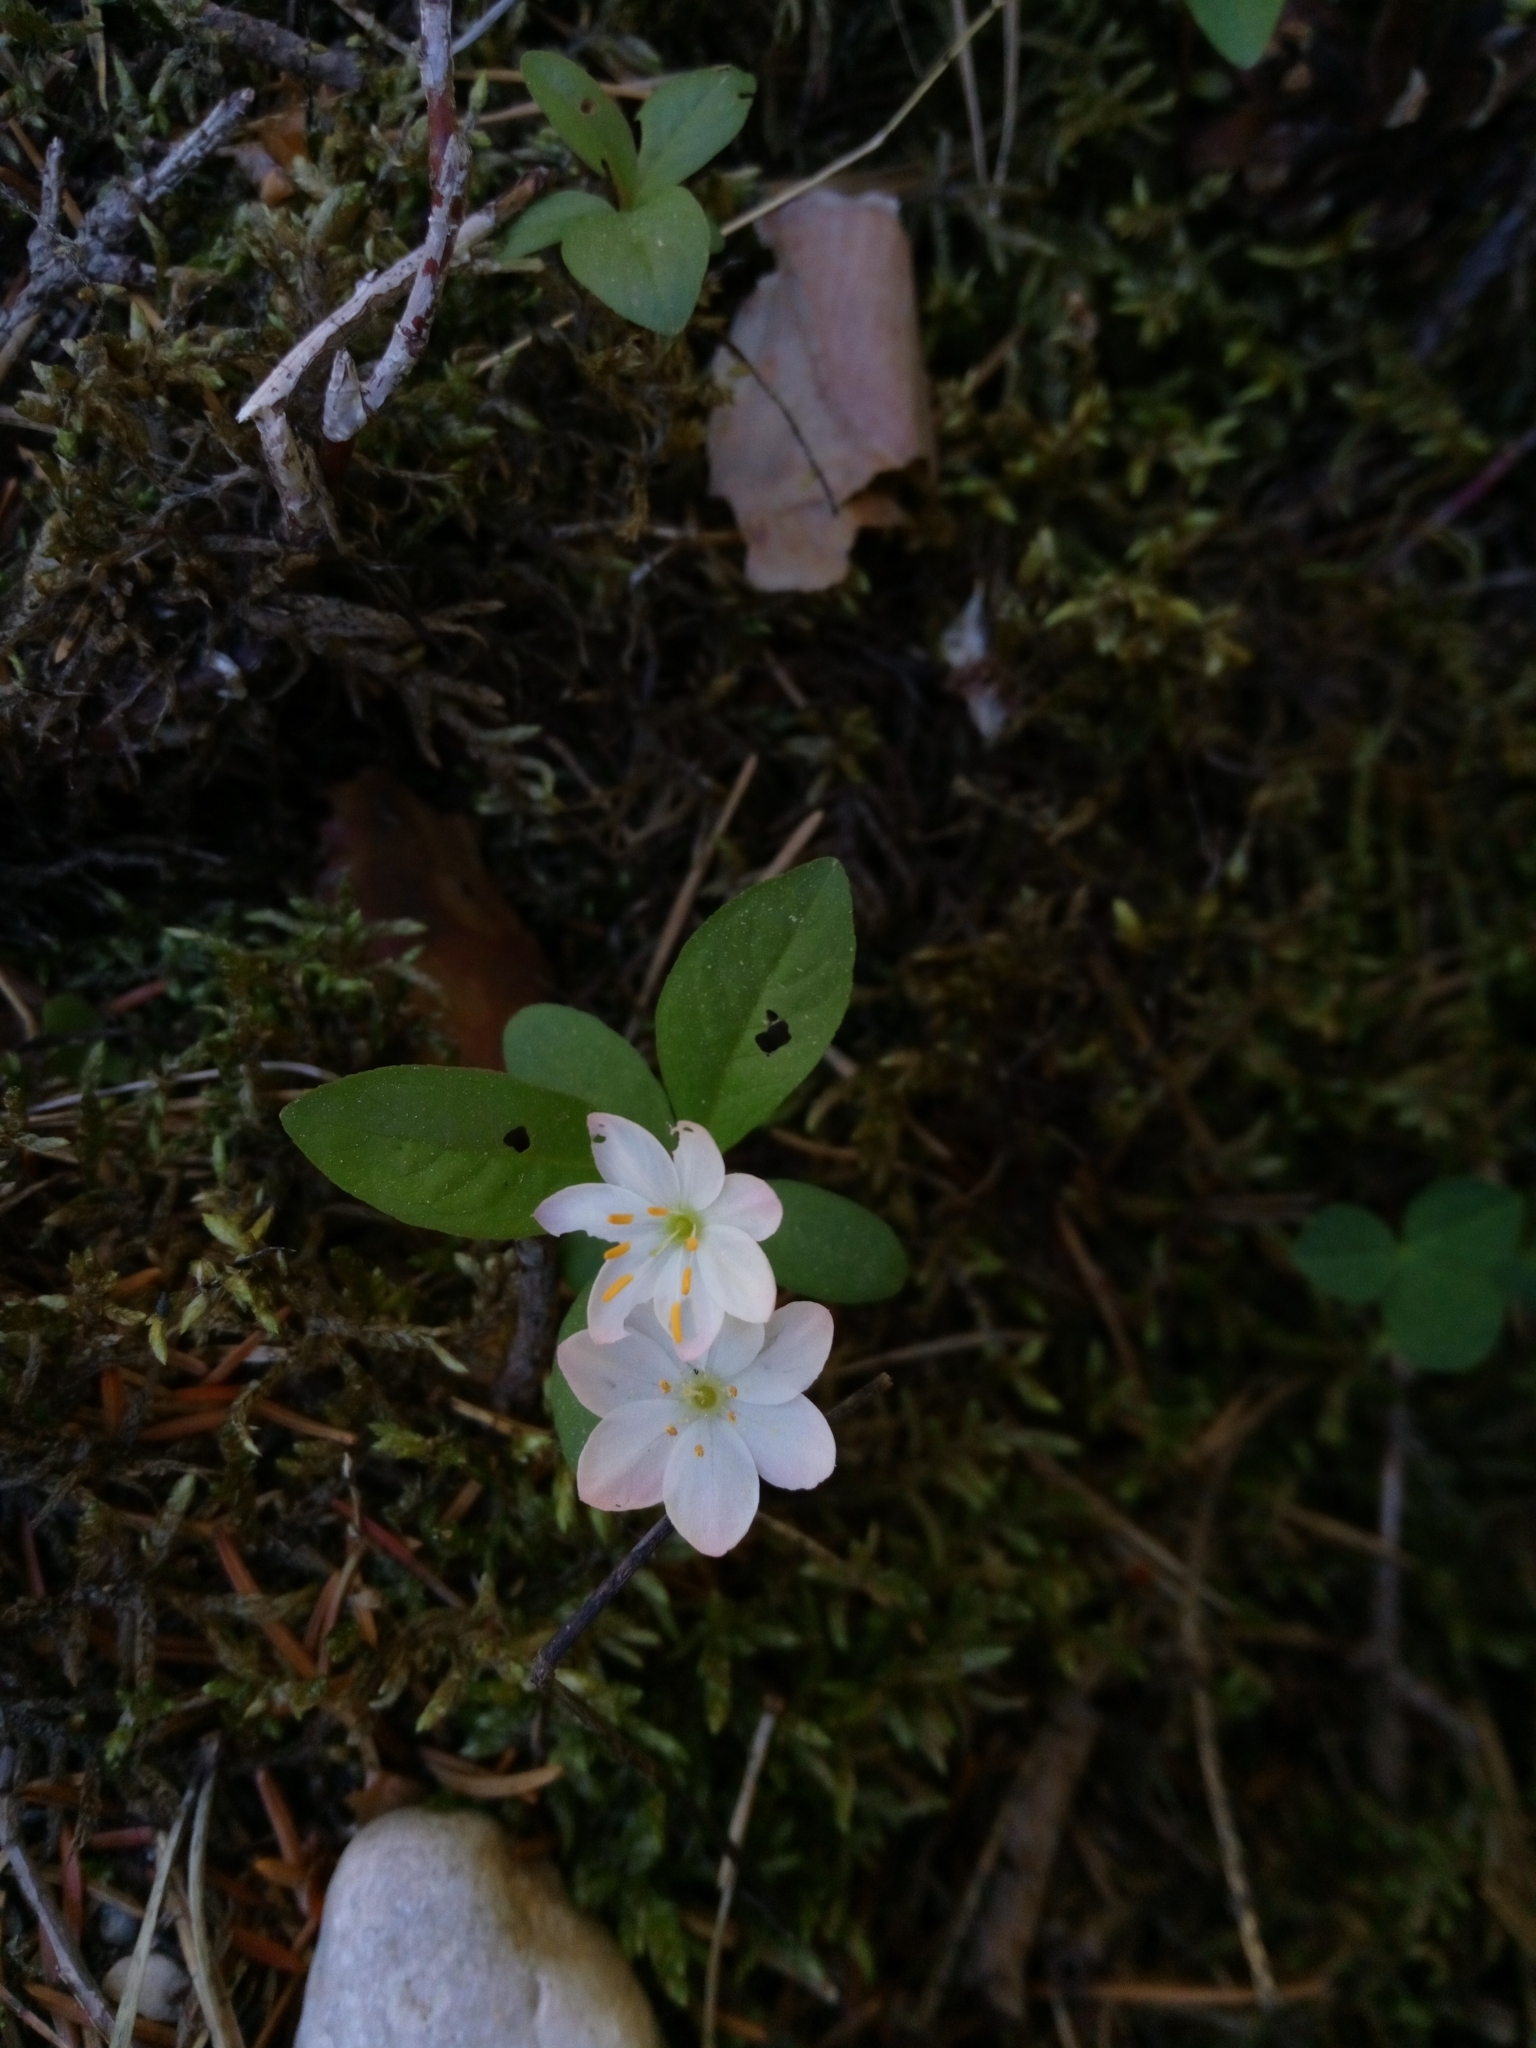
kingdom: Plantae
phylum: Tracheophyta
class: Magnoliopsida
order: Ericales
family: Primulaceae
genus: Lysimachia
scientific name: Lysimachia europaea
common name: Arctic starflower
